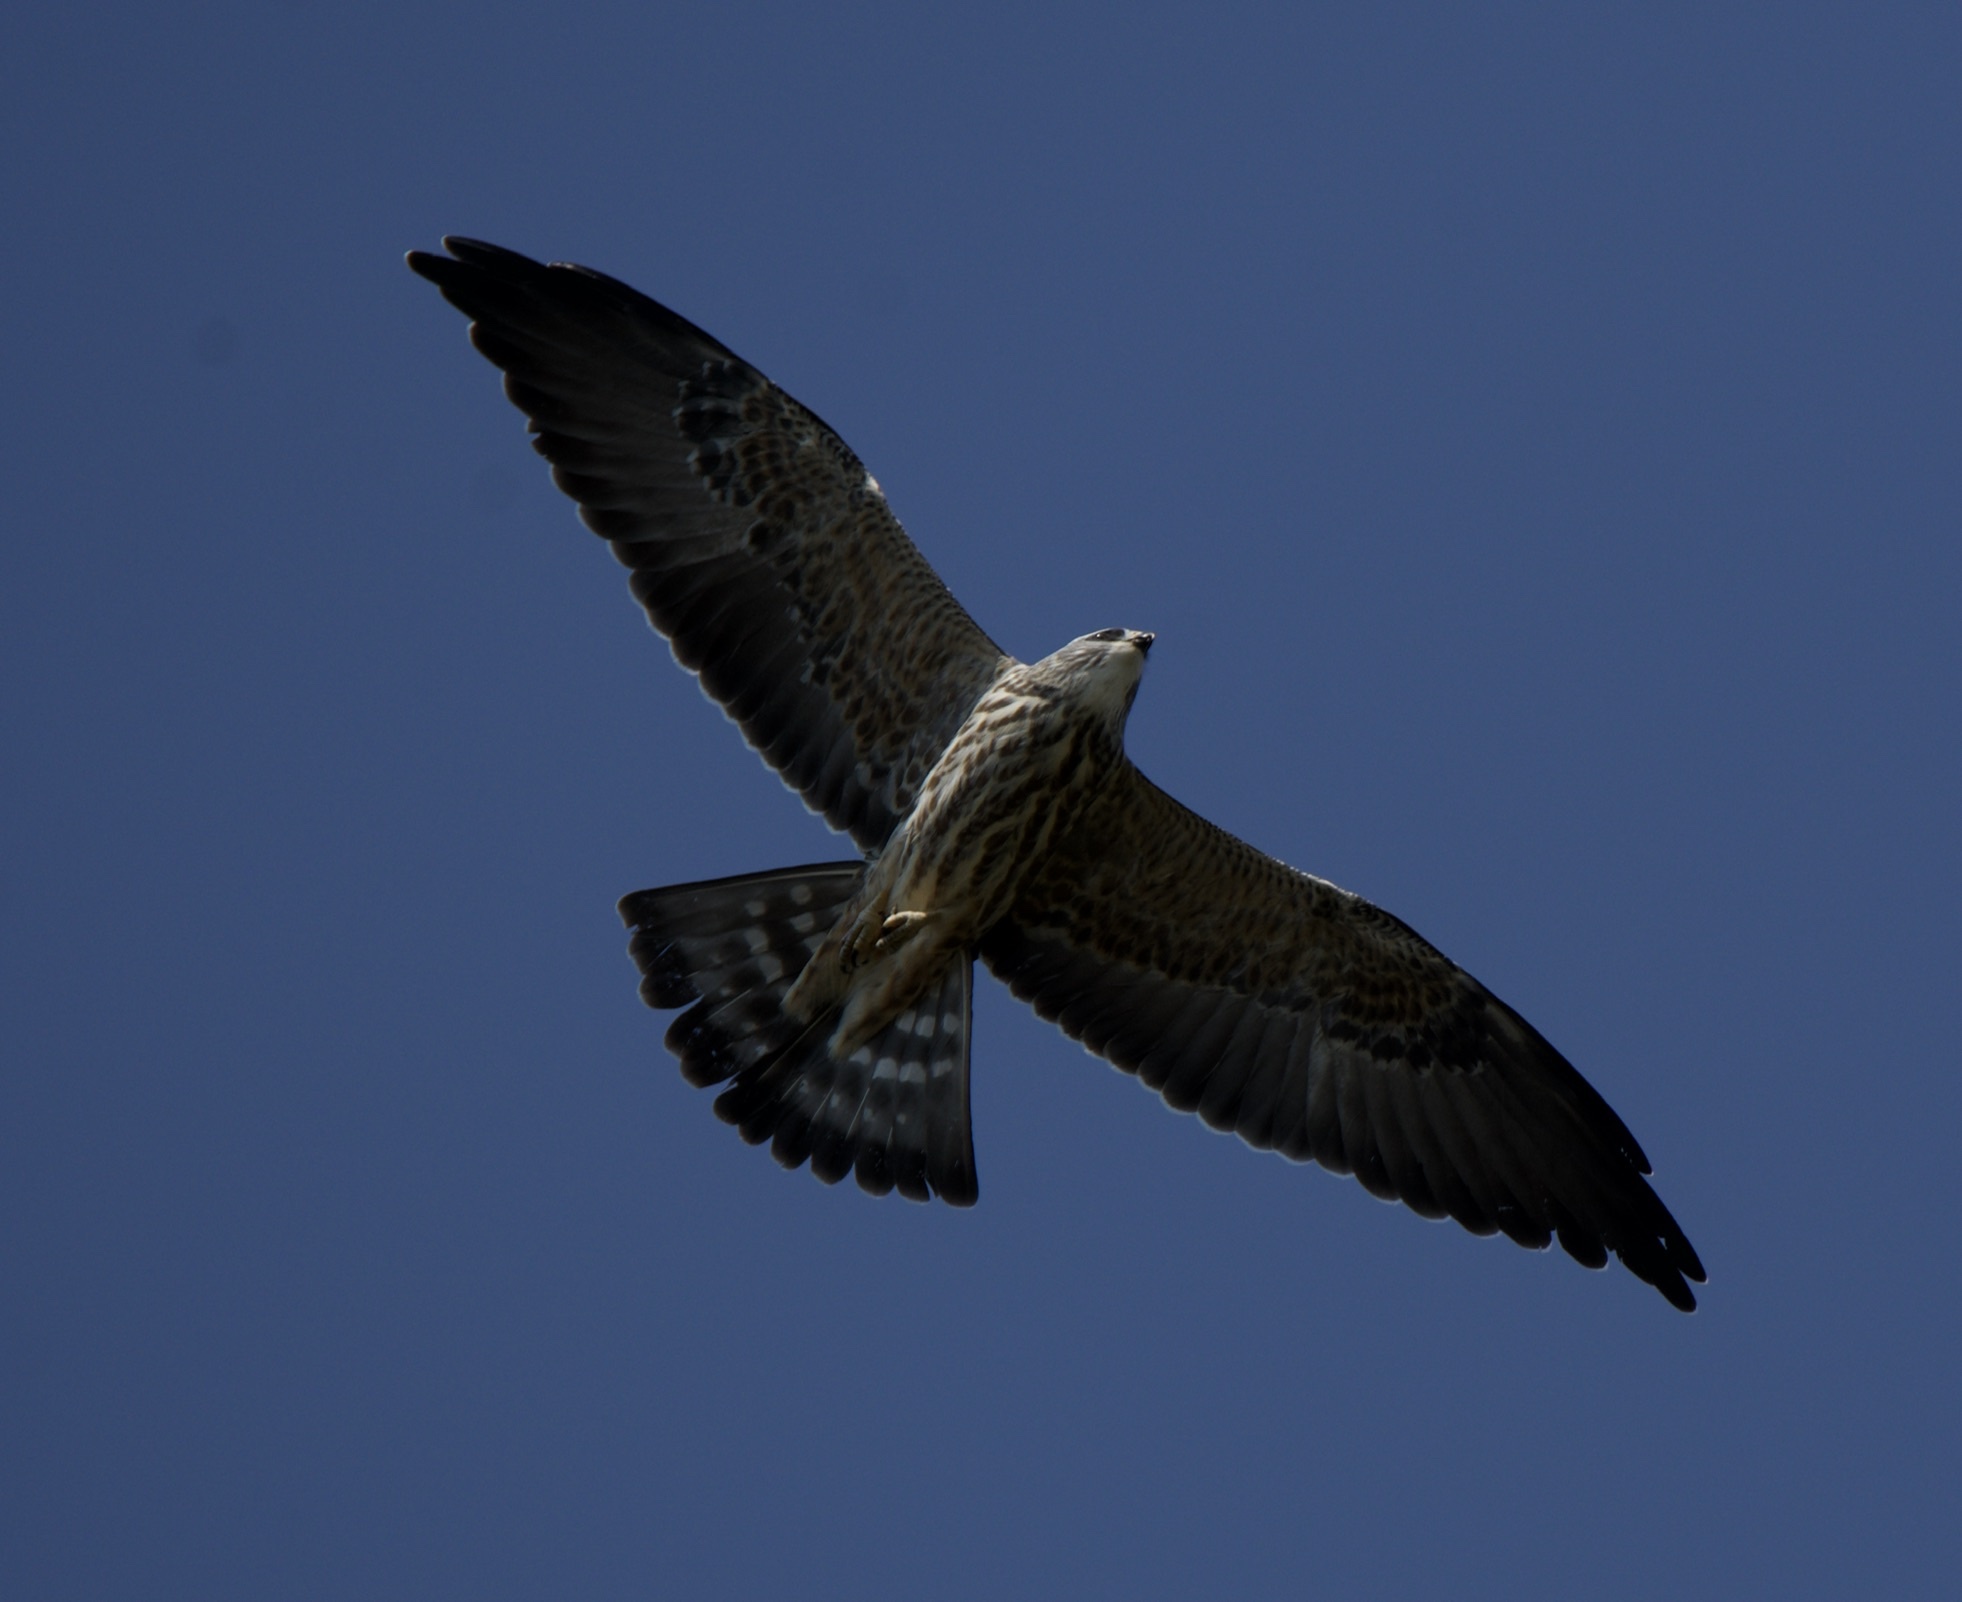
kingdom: Animalia
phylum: Chordata
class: Aves
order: Accipitriformes
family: Accipitridae
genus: Ictinia
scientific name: Ictinia mississippiensis
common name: Mississippi kite
